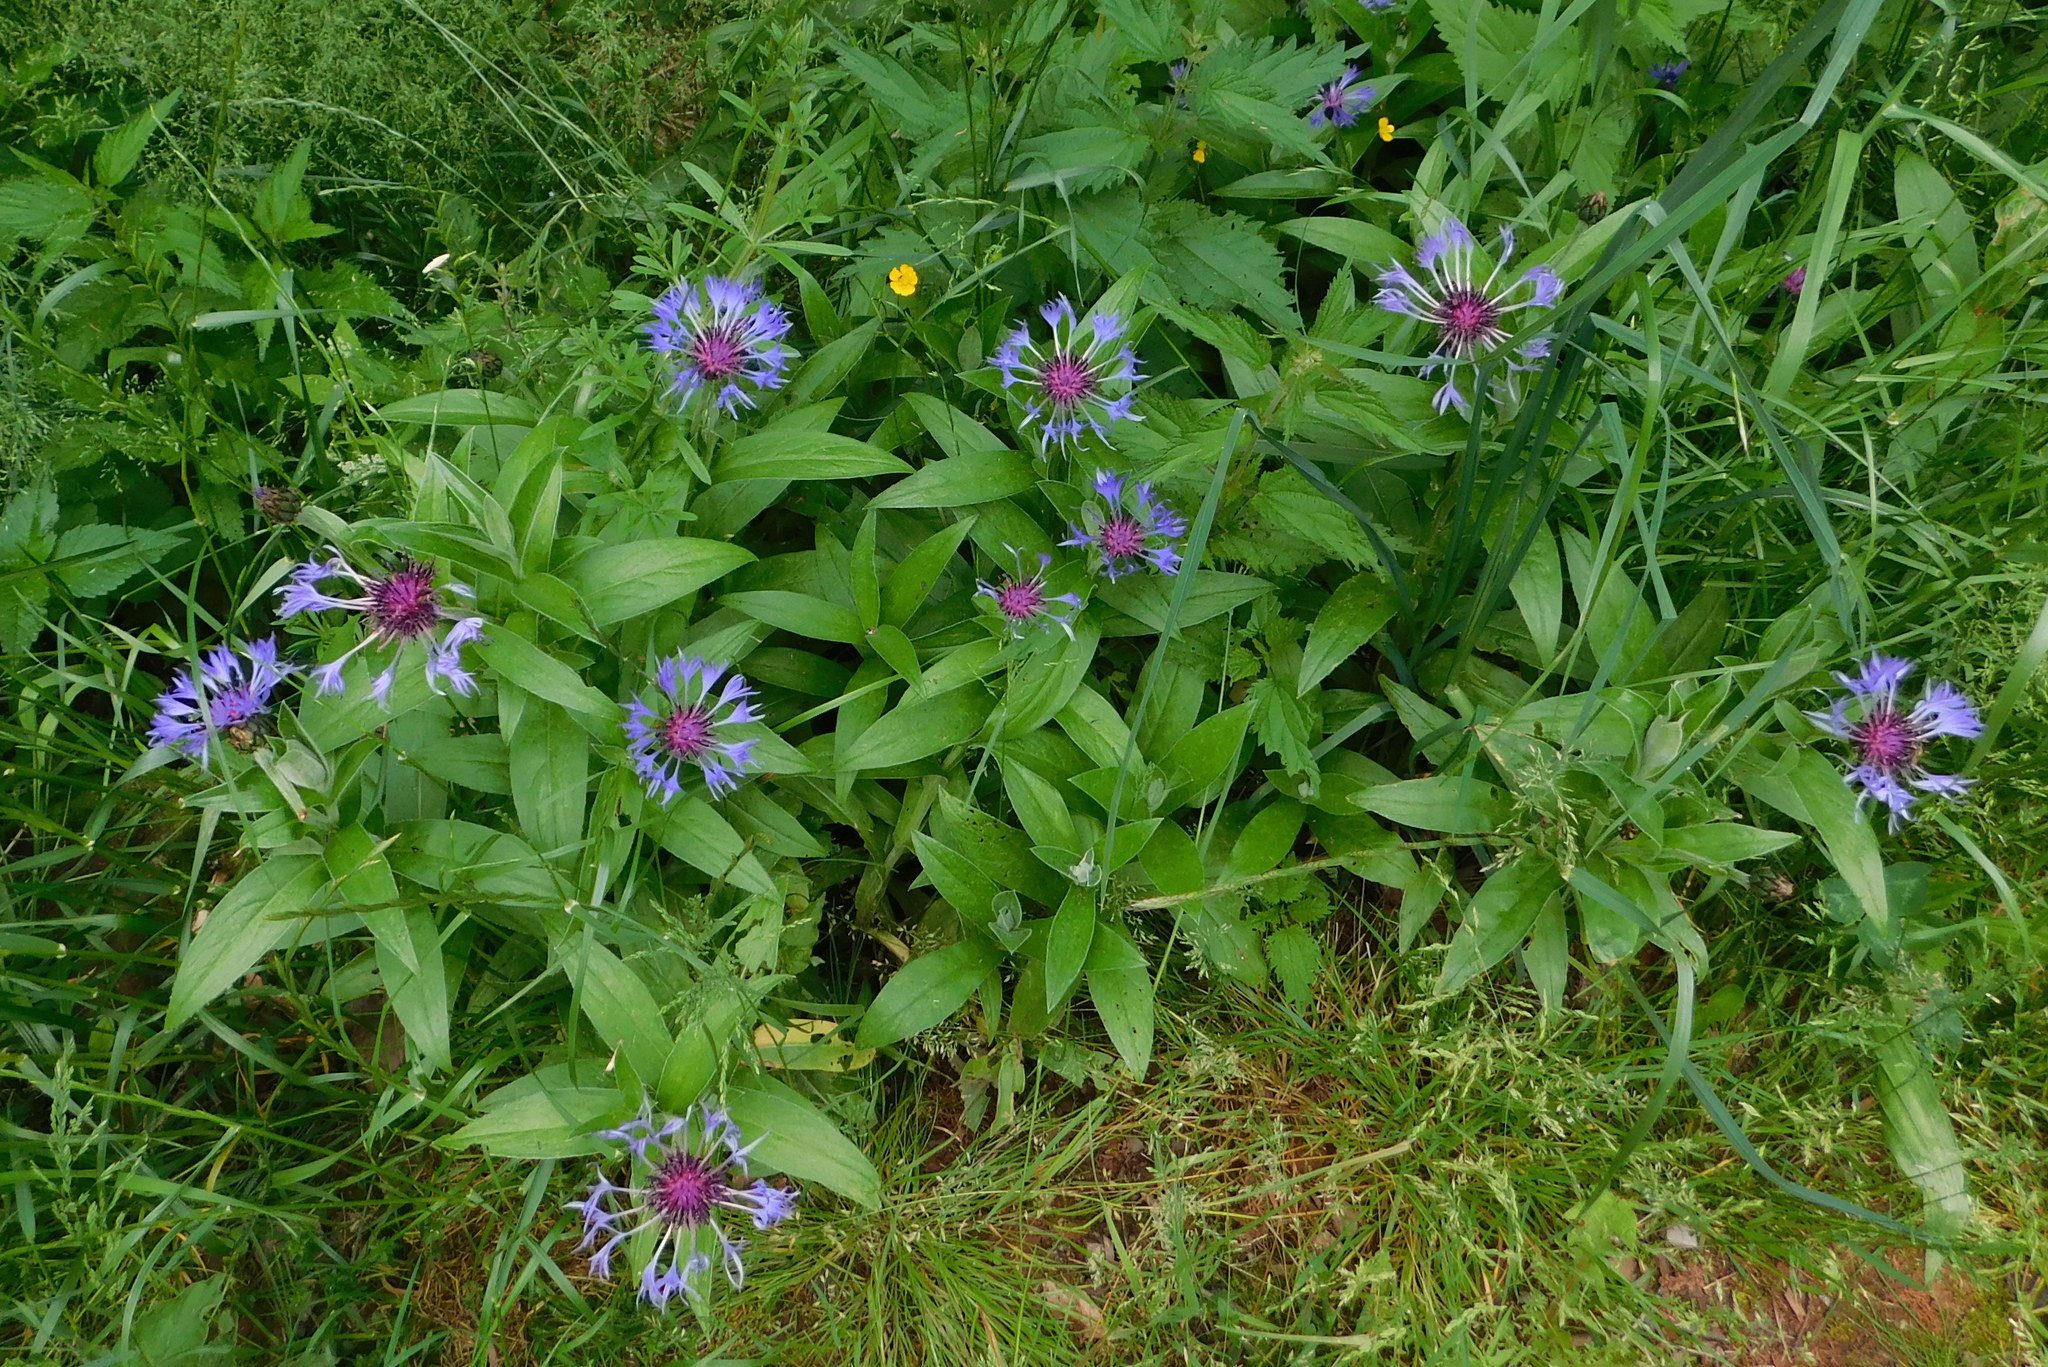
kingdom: Plantae
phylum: Tracheophyta
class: Magnoliopsida
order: Asterales
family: Asteraceae
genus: Centaurea
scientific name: Centaurea montana
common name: Perennial cornflower
